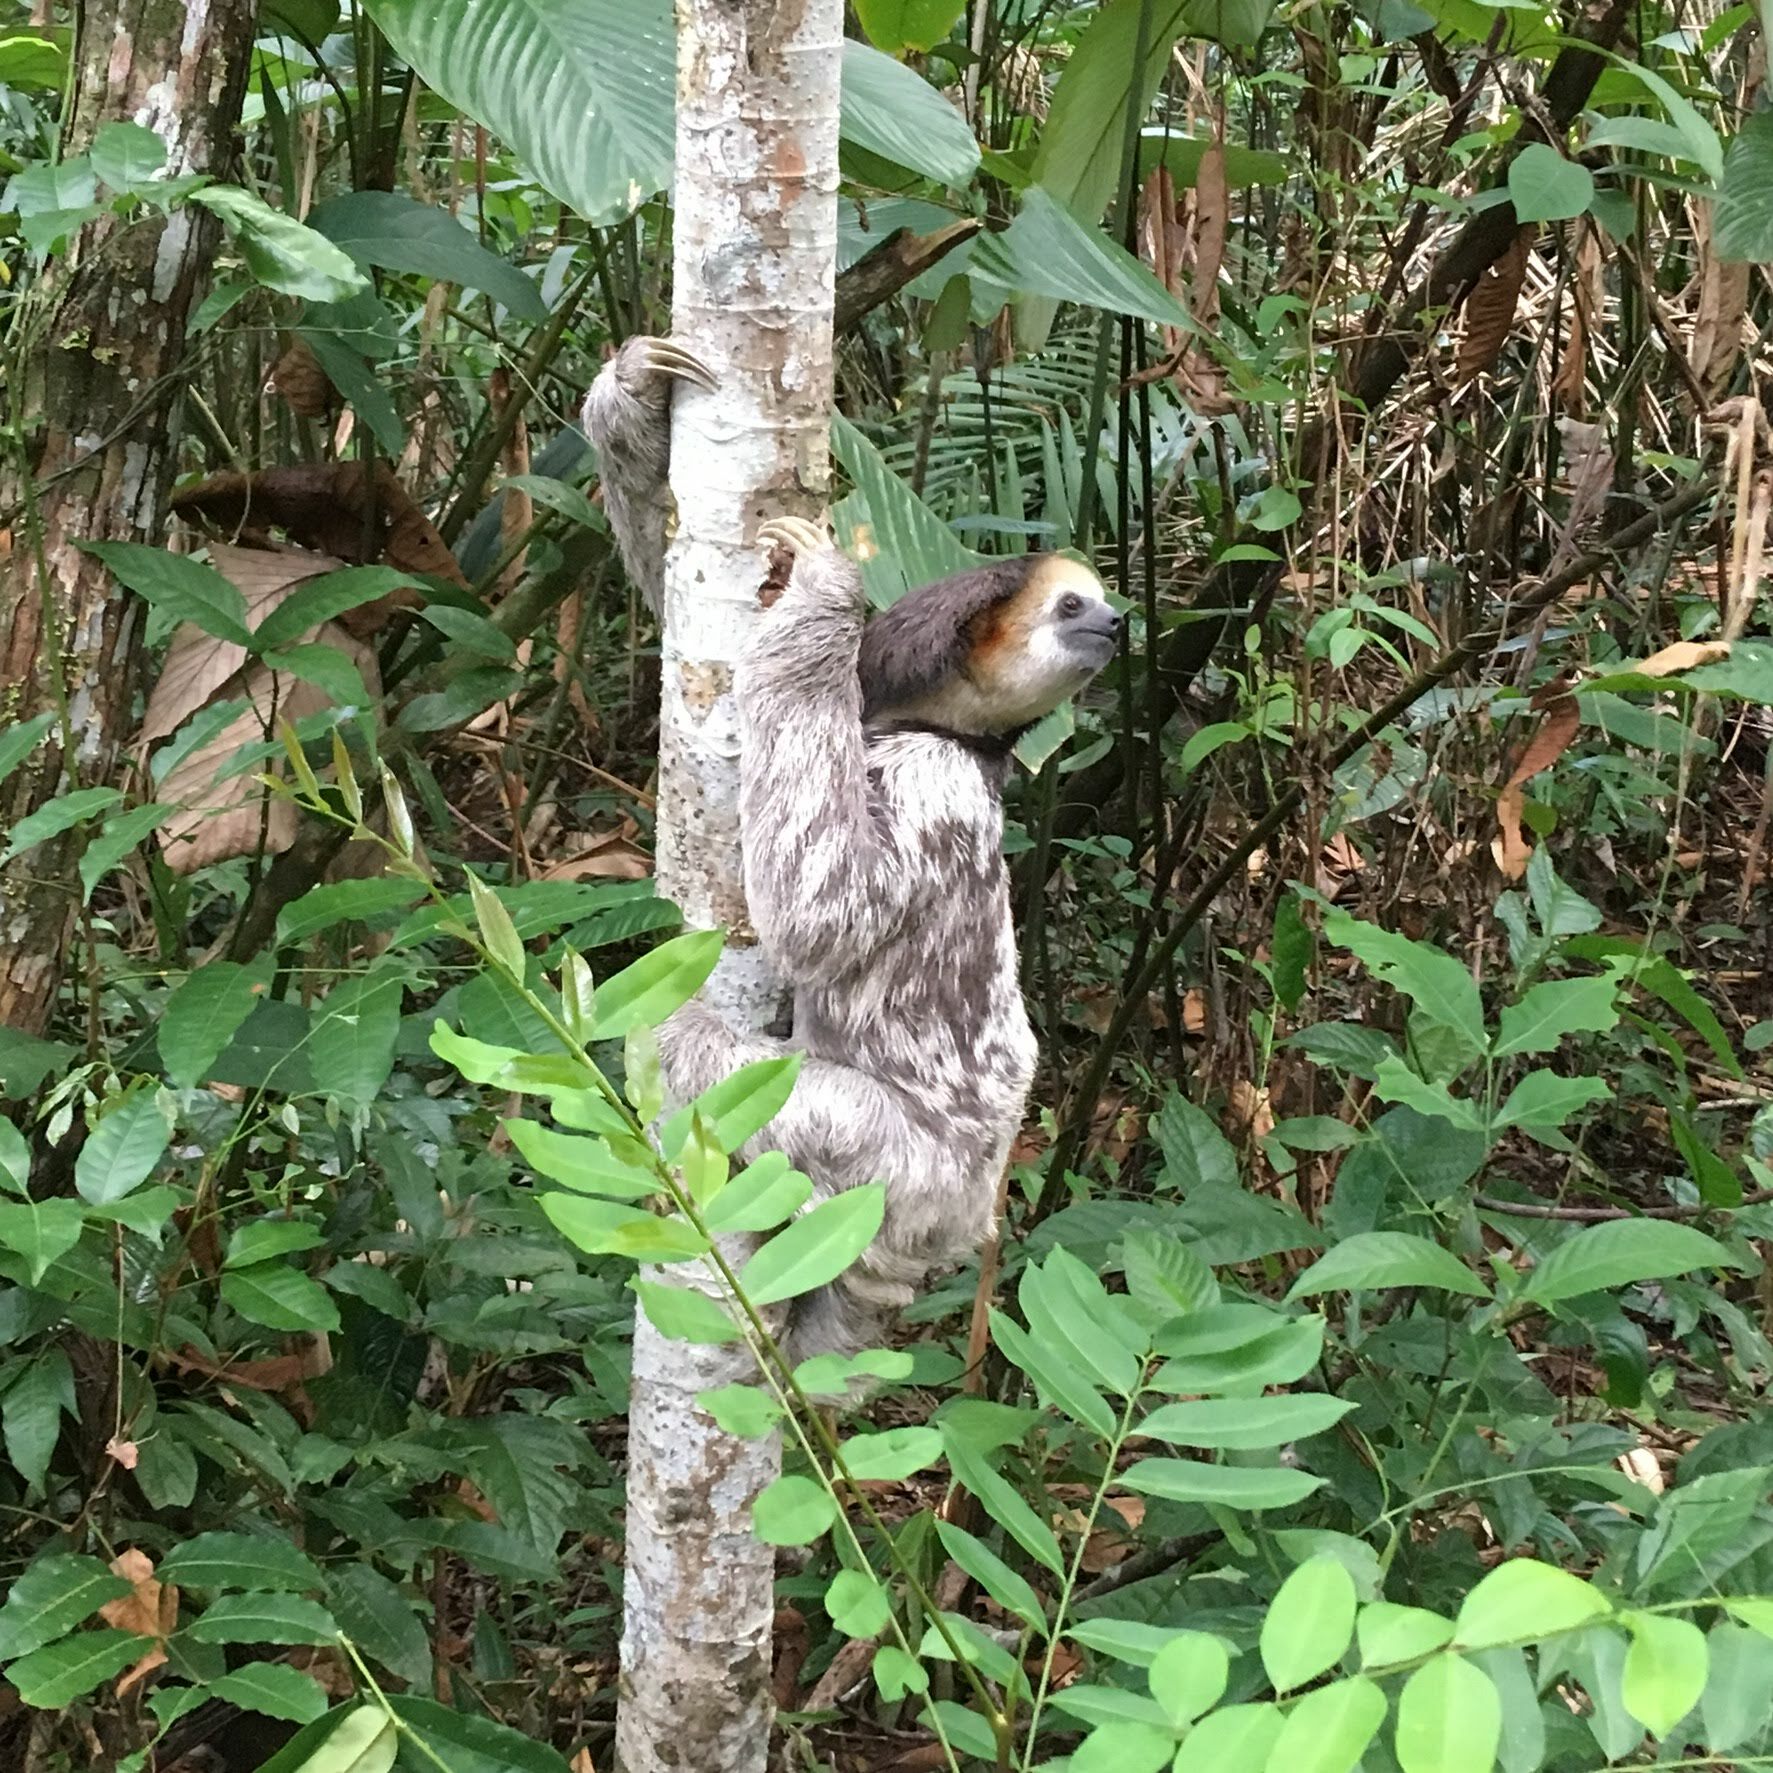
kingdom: Animalia
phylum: Chordata
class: Mammalia
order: Pilosa
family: Bradypodidae
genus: Bradypus
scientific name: Bradypus tridactylus
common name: Pale-throated three-toed sloth
